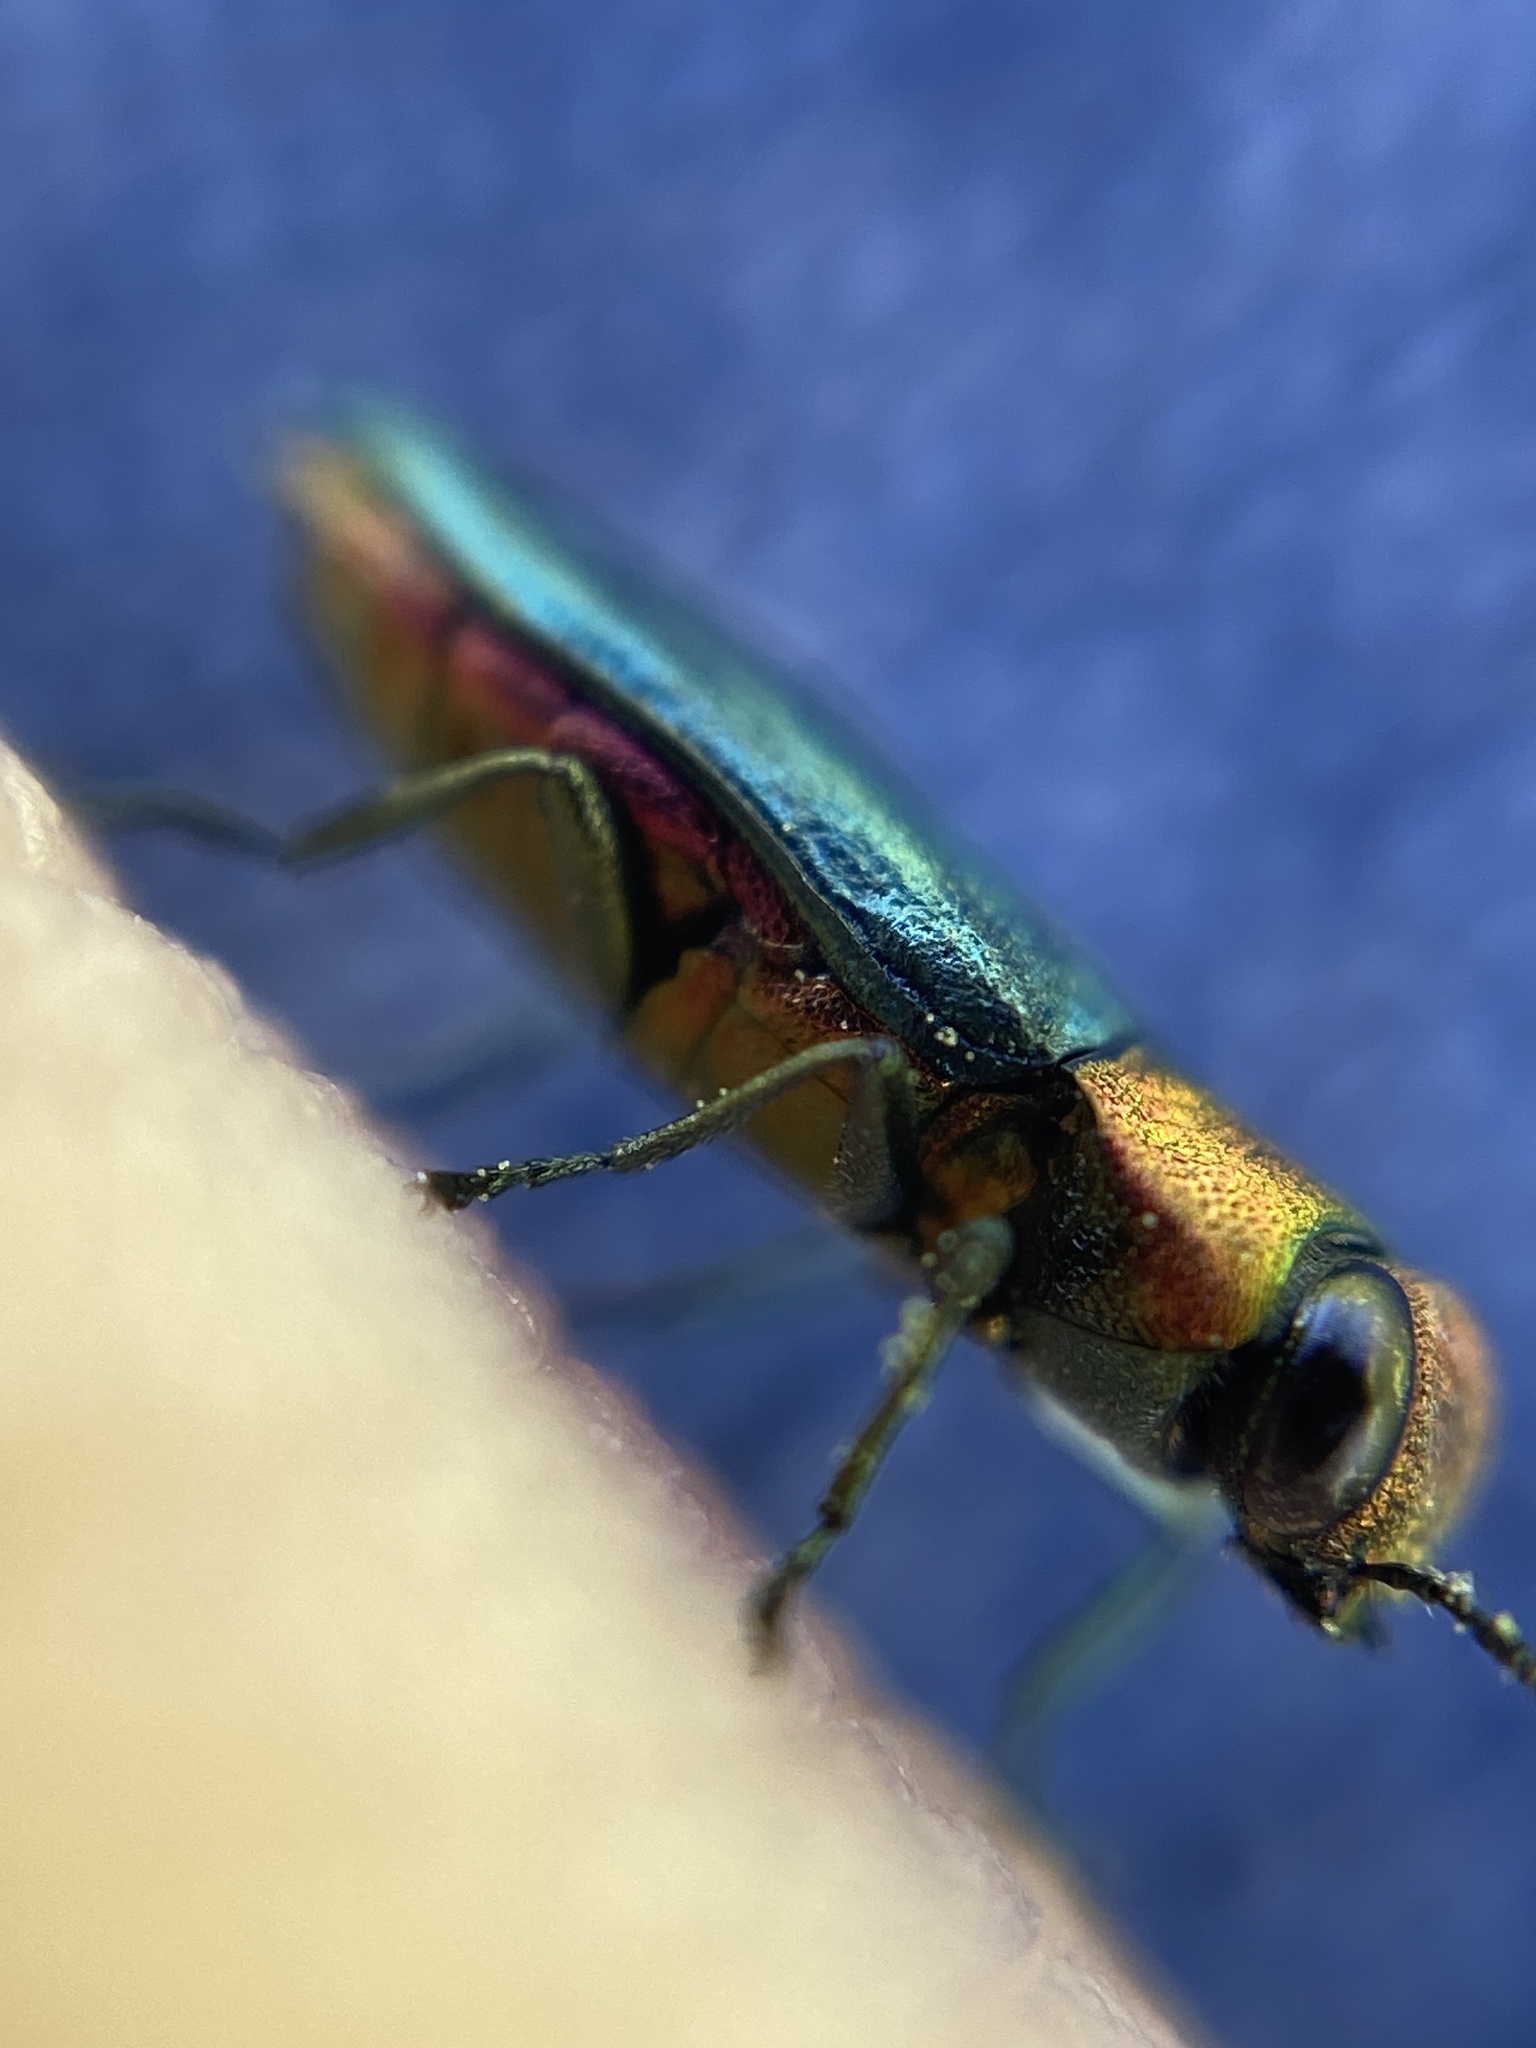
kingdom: Animalia
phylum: Arthropoda
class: Insecta
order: Coleoptera
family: Buprestidae
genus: Anthaxia
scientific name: Anthaxia nitidula
